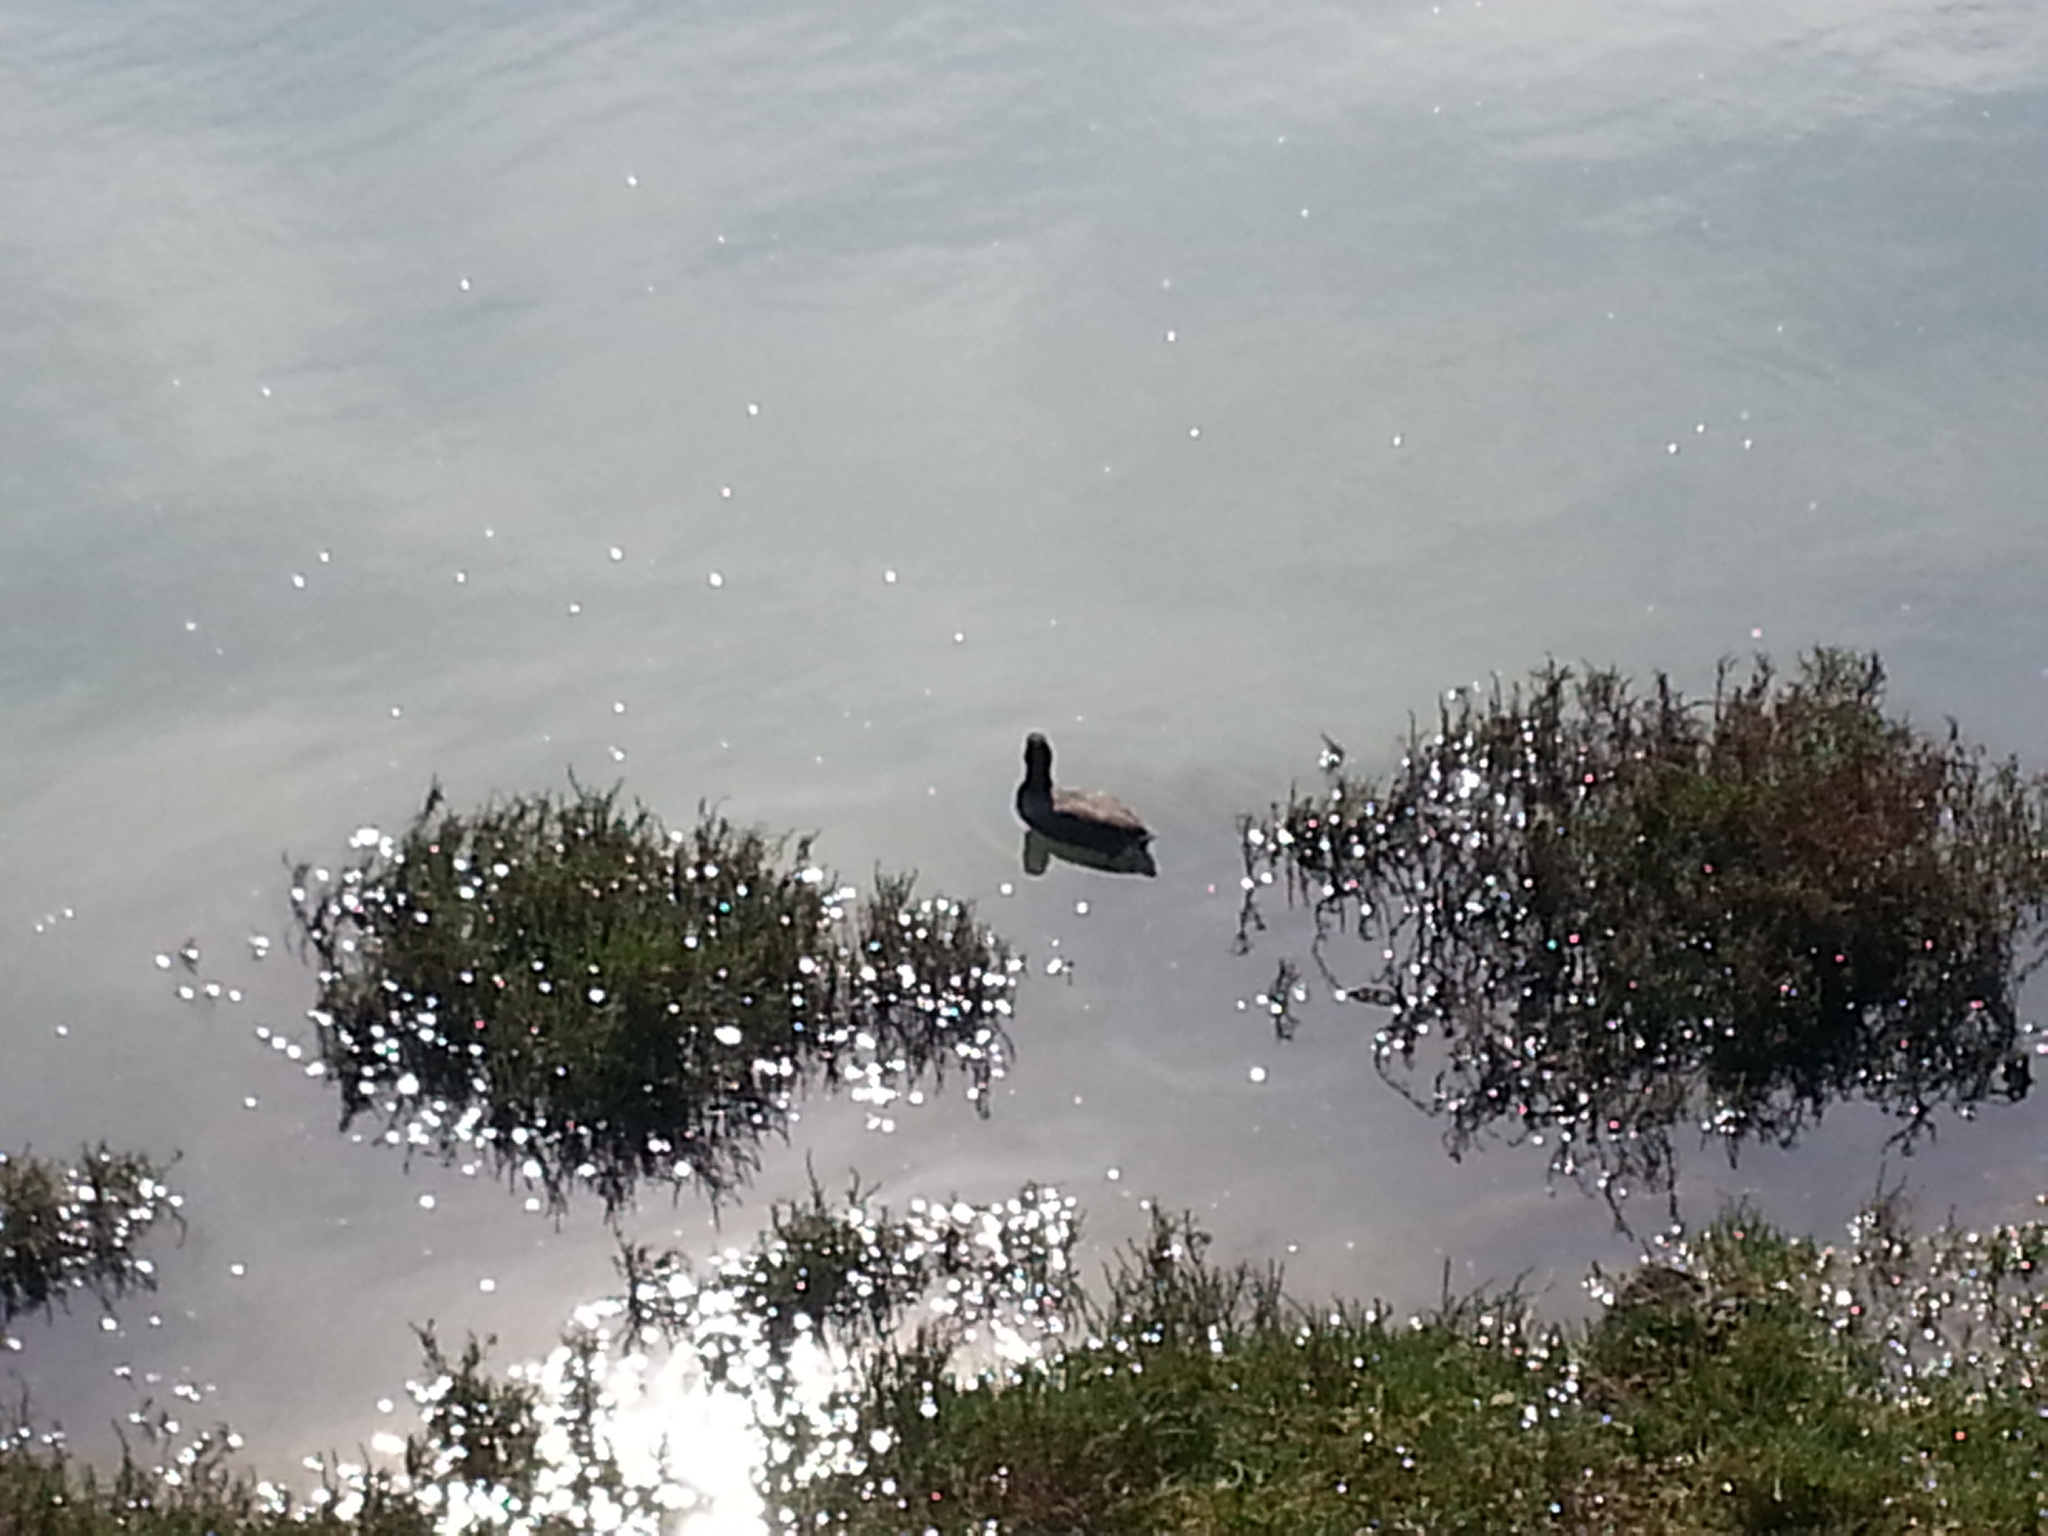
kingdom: Animalia
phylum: Chordata
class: Aves
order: Gruiformes
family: Rallidae
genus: Fulica
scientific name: Fulica americana
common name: American coot
